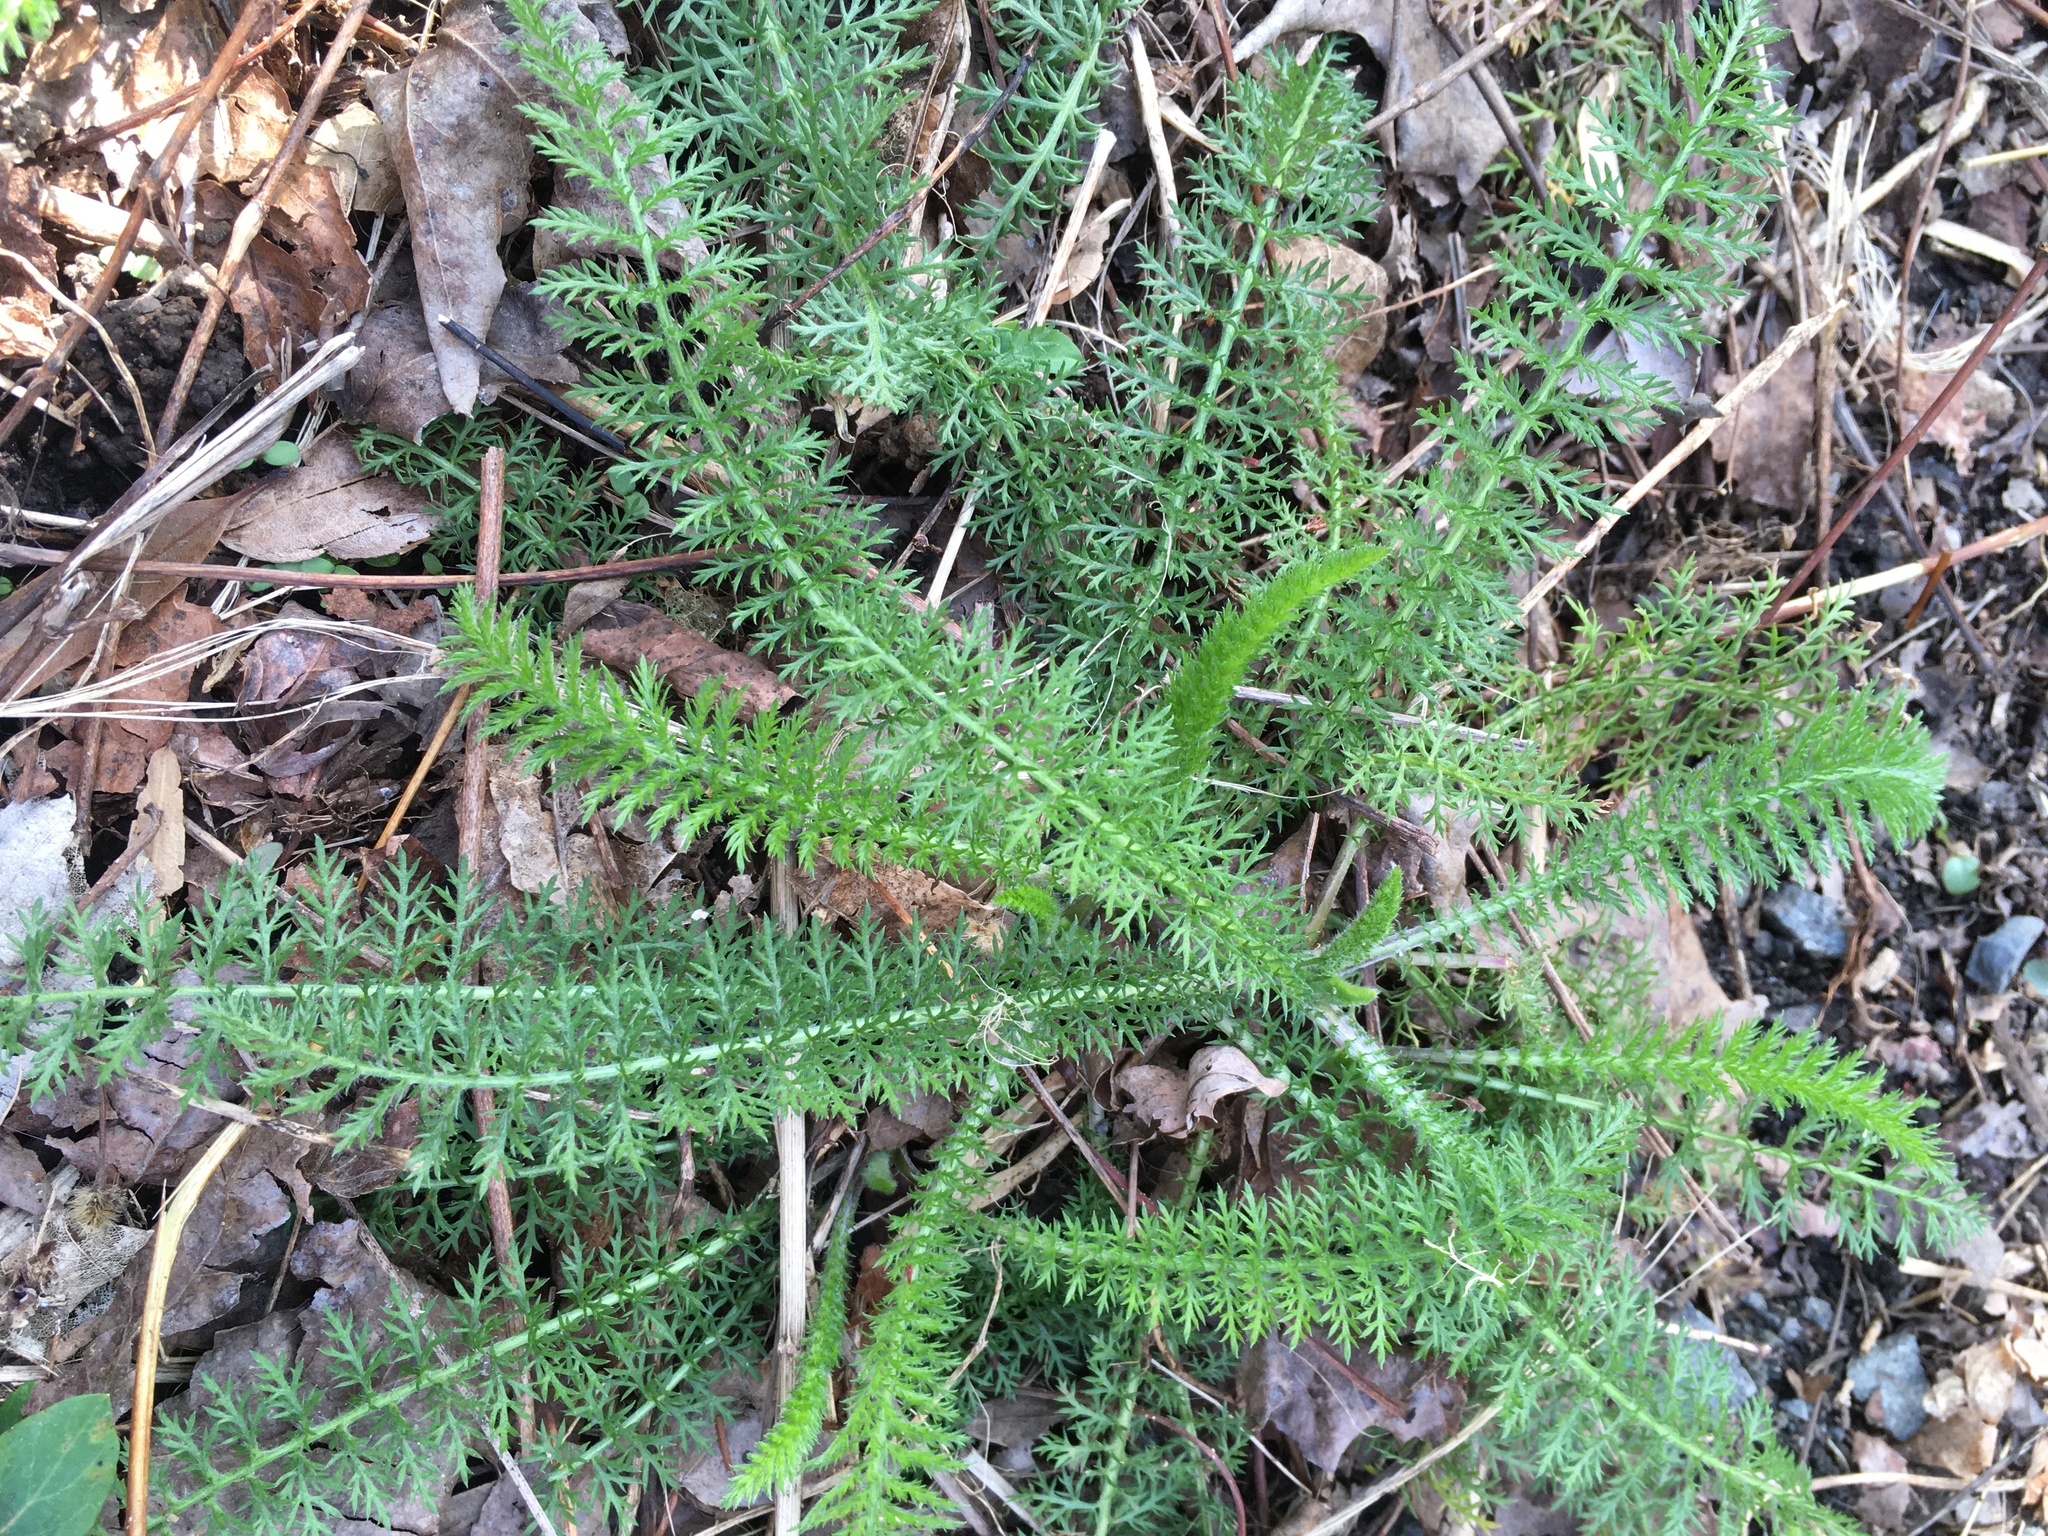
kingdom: Plantae
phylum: Tracheophyta
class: Magnoliopsida
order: Asterales
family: Asteraceae
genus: Achillea
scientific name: Achillea millefolium
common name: Yarrow
